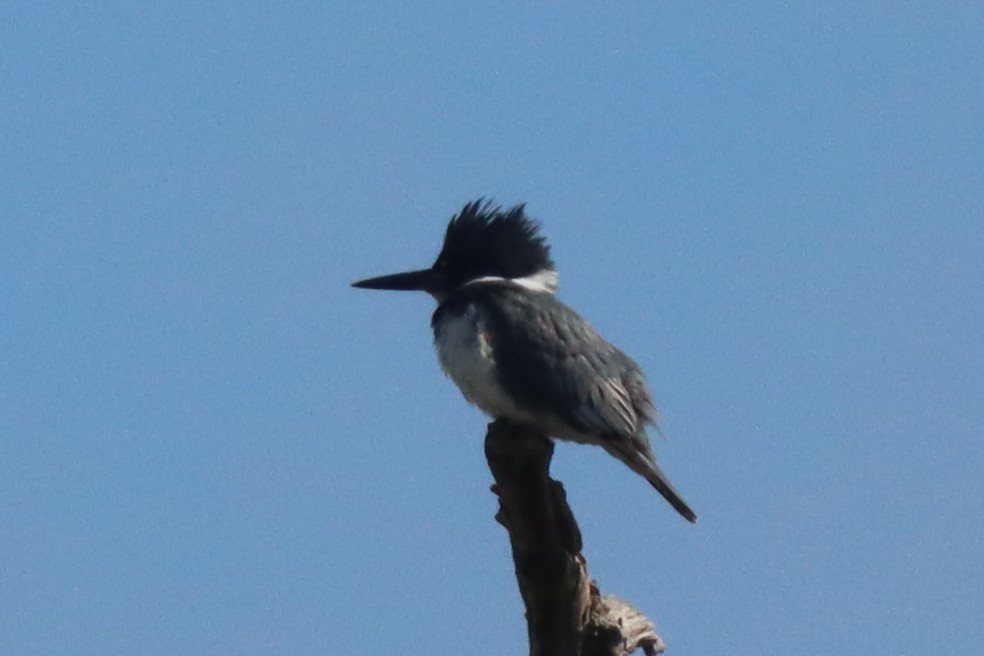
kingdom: Animalia
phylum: Chordata
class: Aves
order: Coraciiformes
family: Alcedinidae
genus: Megaceryle
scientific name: Megaceryle alcyon
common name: Belted kingfisher
